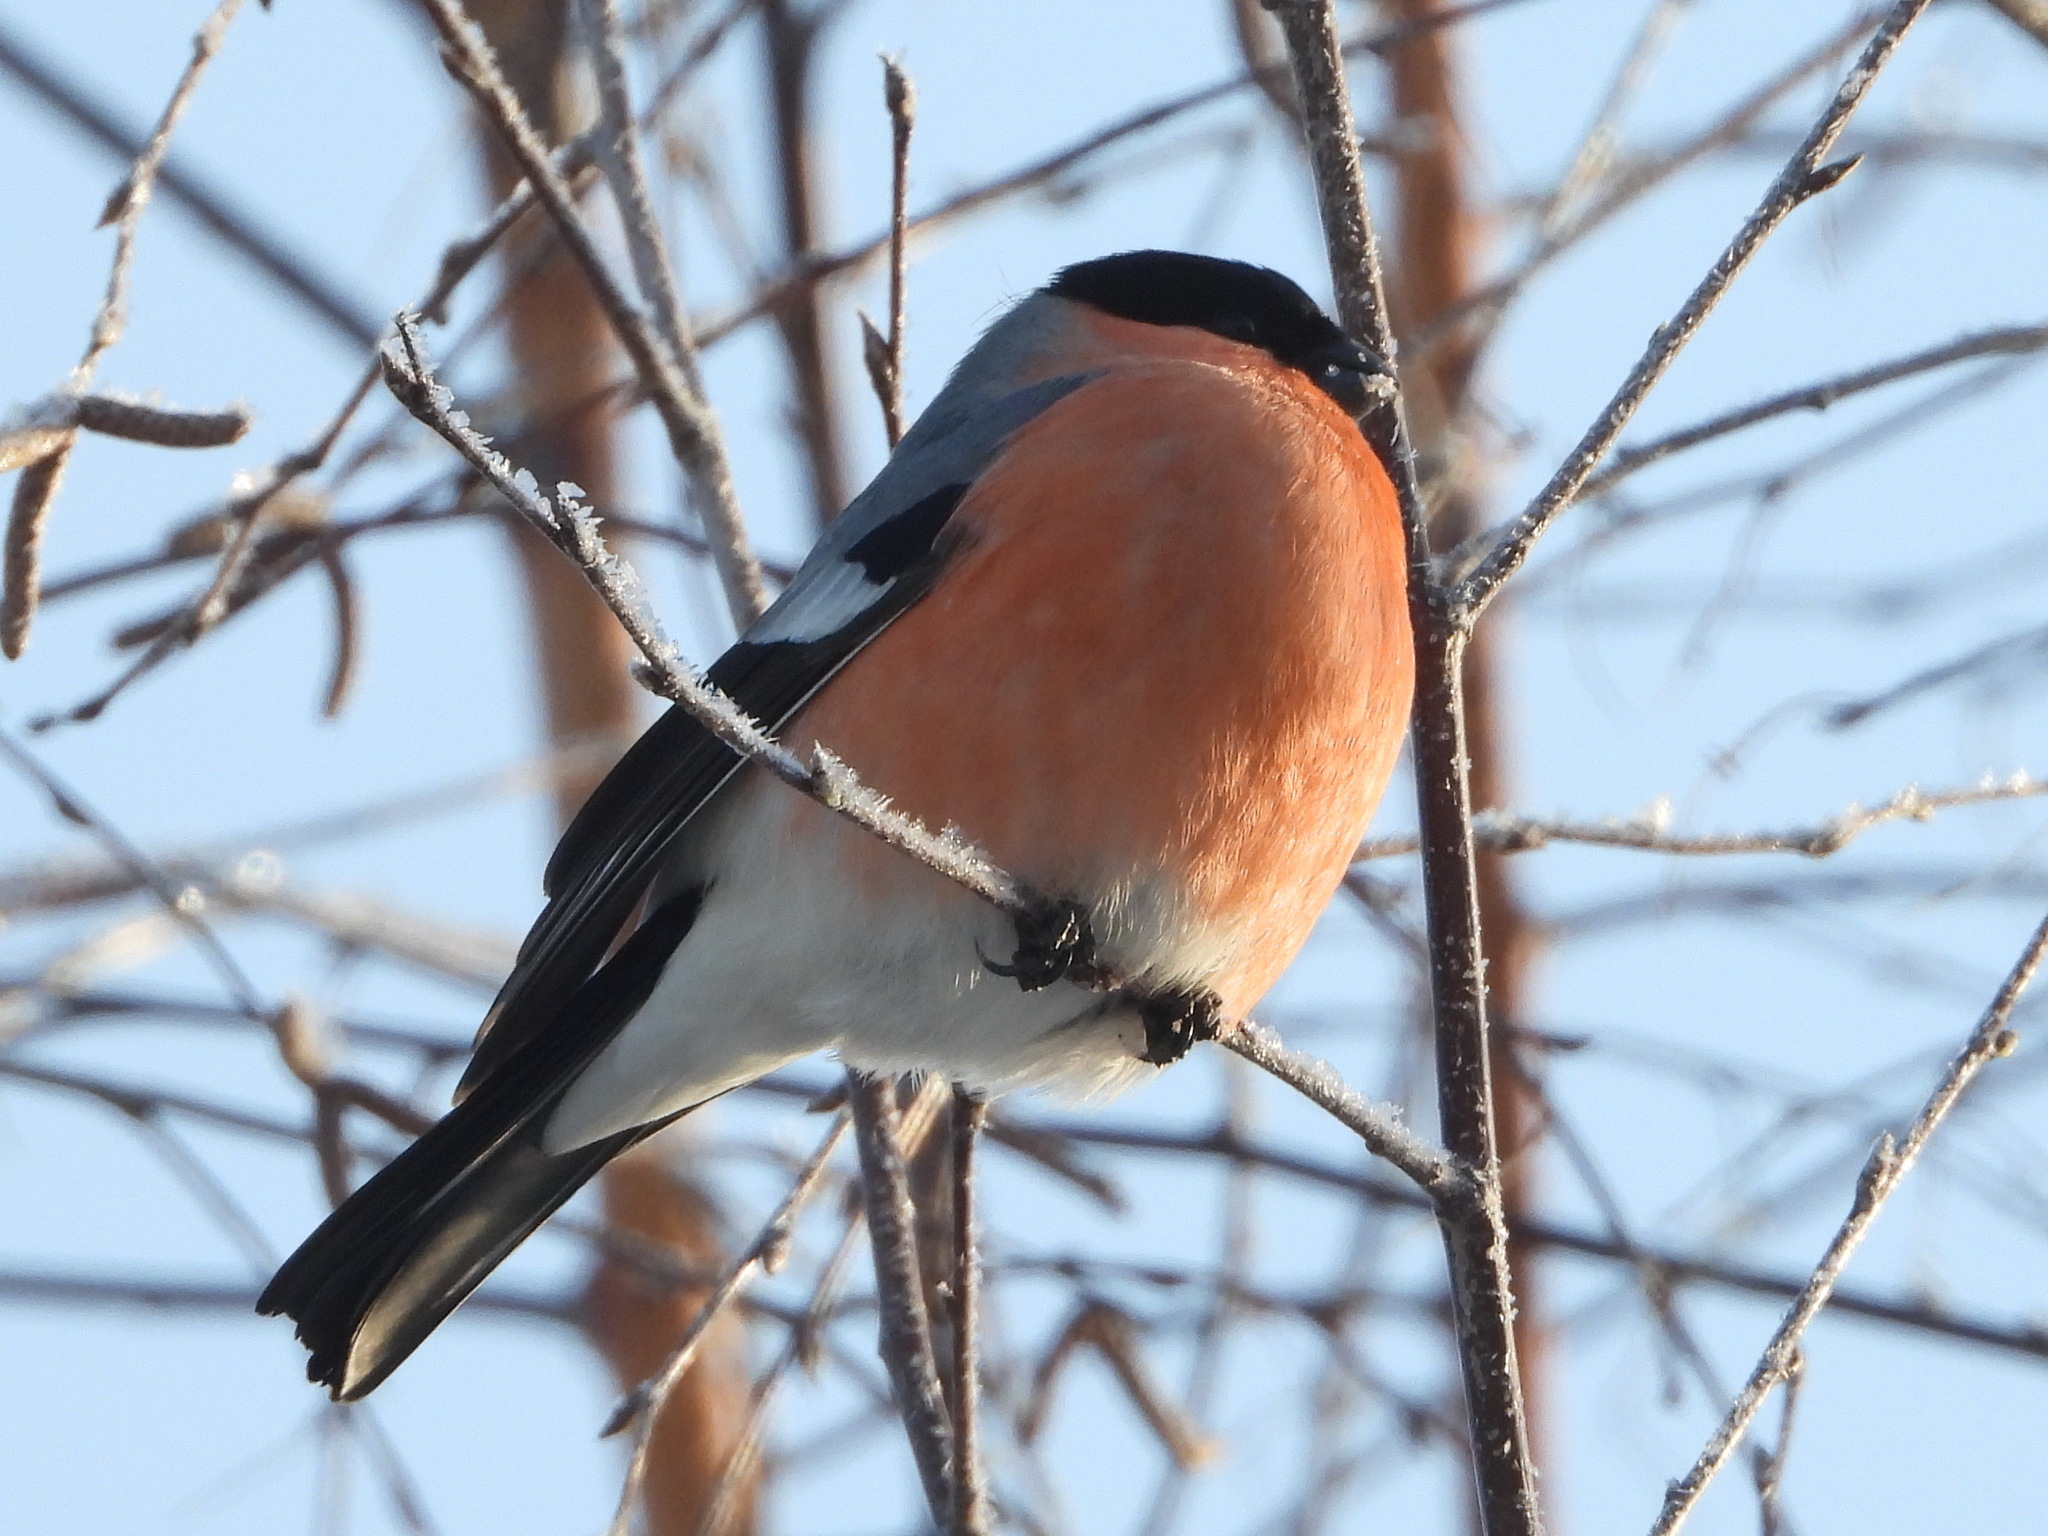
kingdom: Animalia
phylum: Chordata
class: Aves
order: Passeriformes
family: Fringillidae
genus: Pyrrhula
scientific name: Pyrrhula pyrrhula
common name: Eurasian bullfinch
